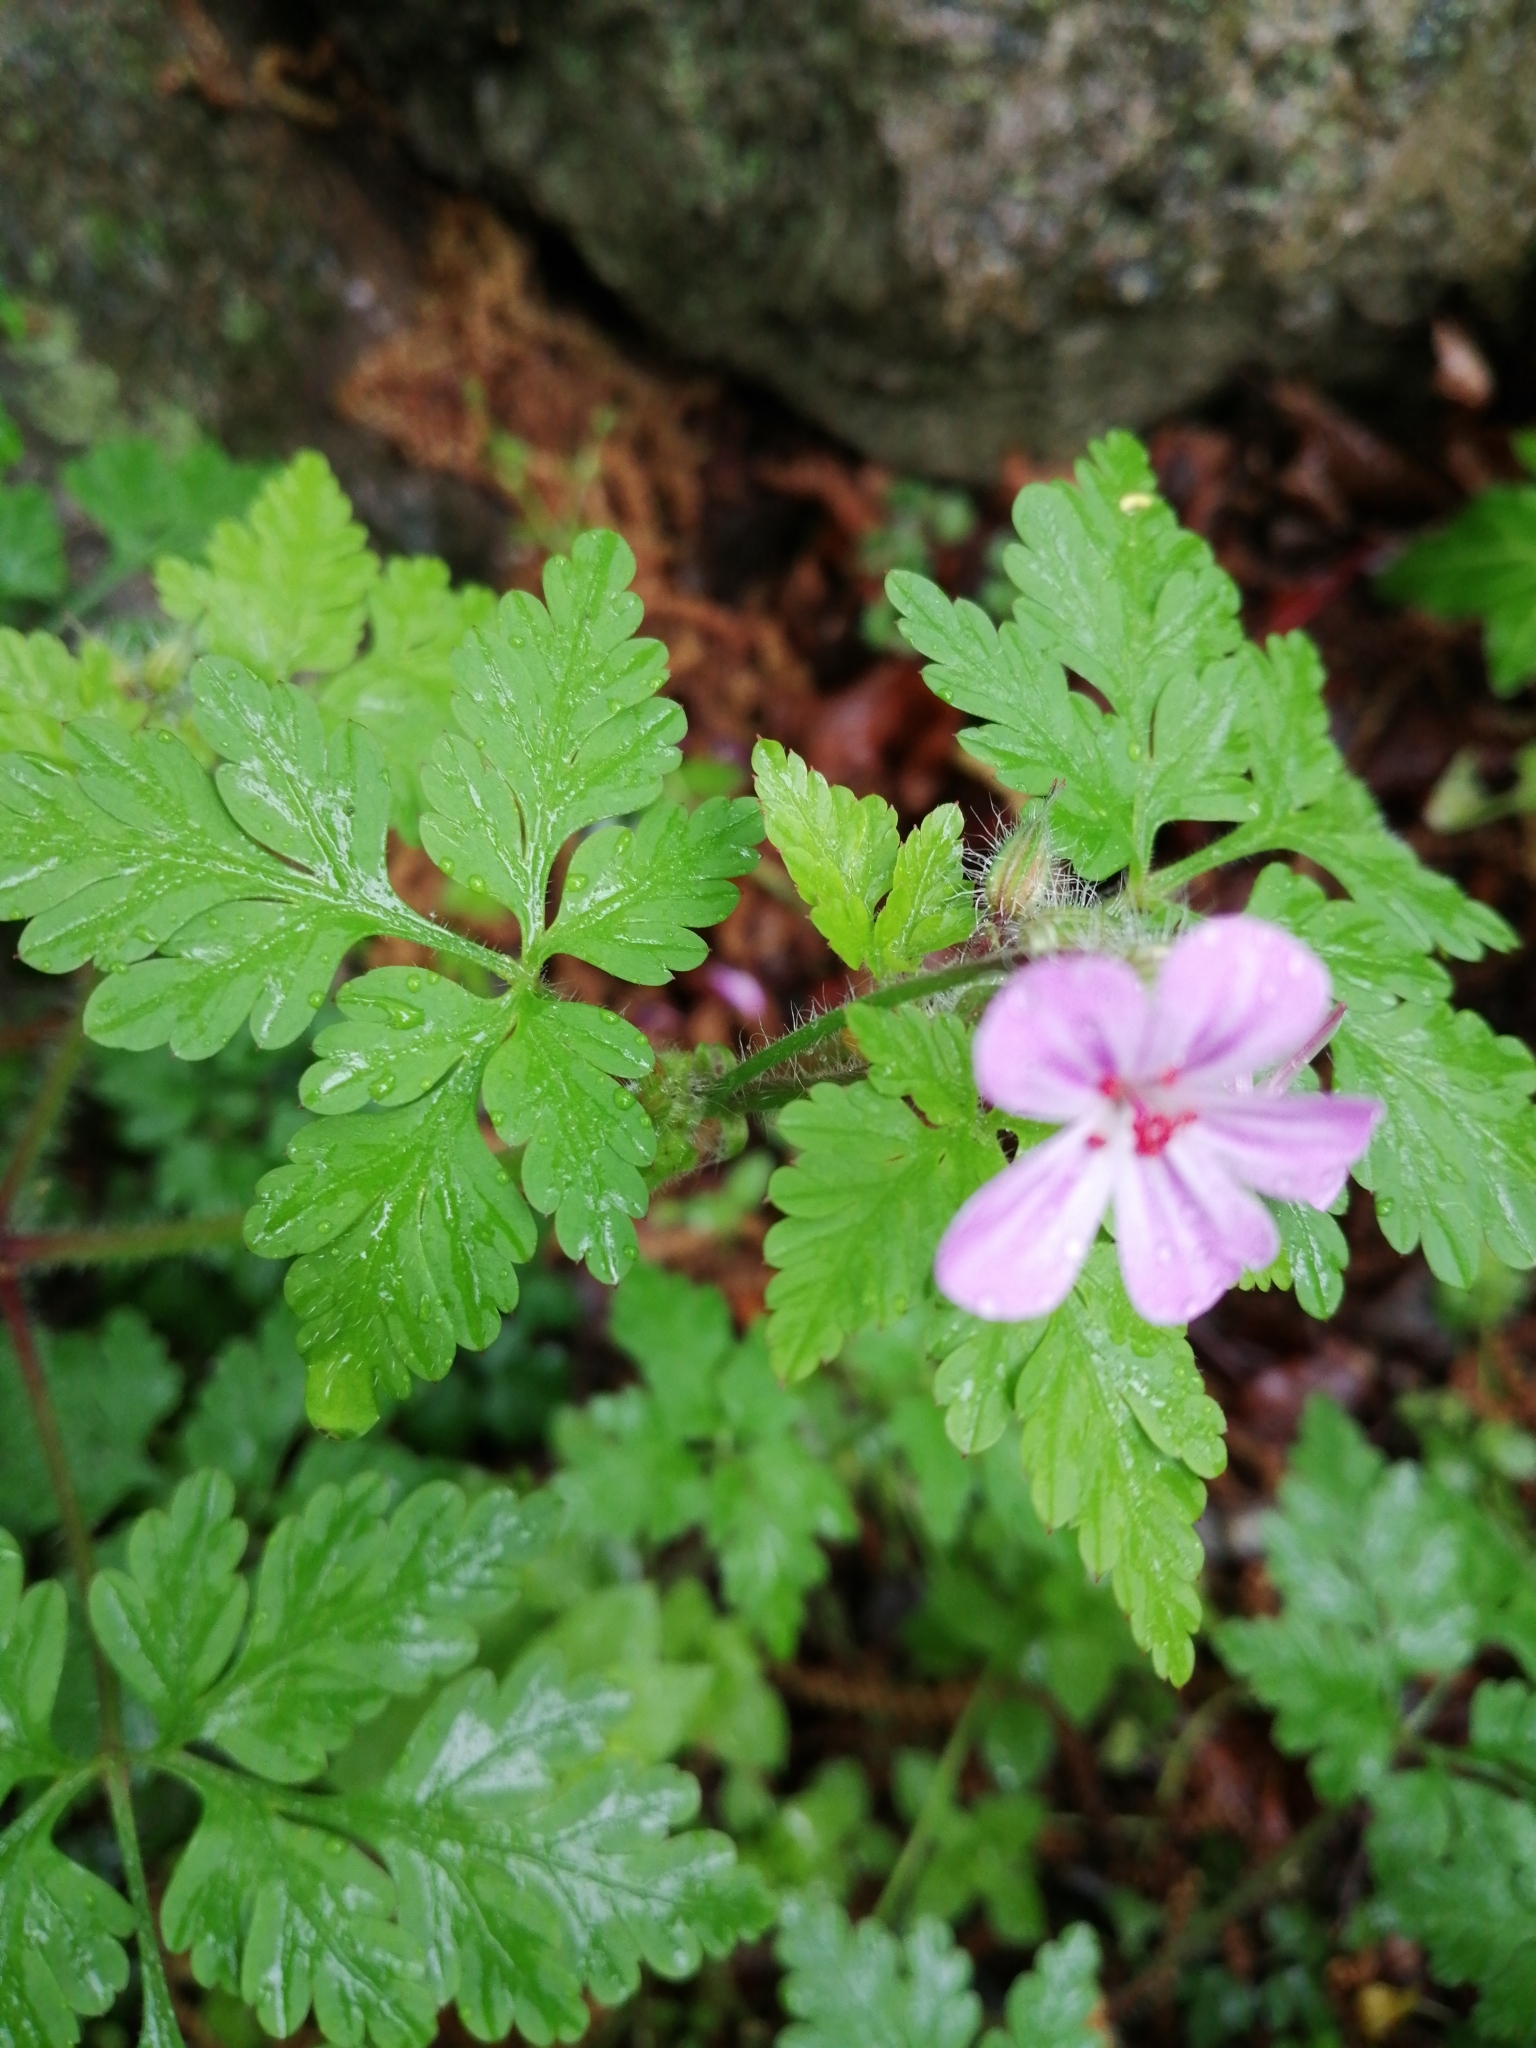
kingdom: Plantae
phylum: Tracheophyta
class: Magnoliopsida
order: Geraniales
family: Geraniaceae
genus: Geranium
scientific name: Geranium robertianum
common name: Herb-robert
